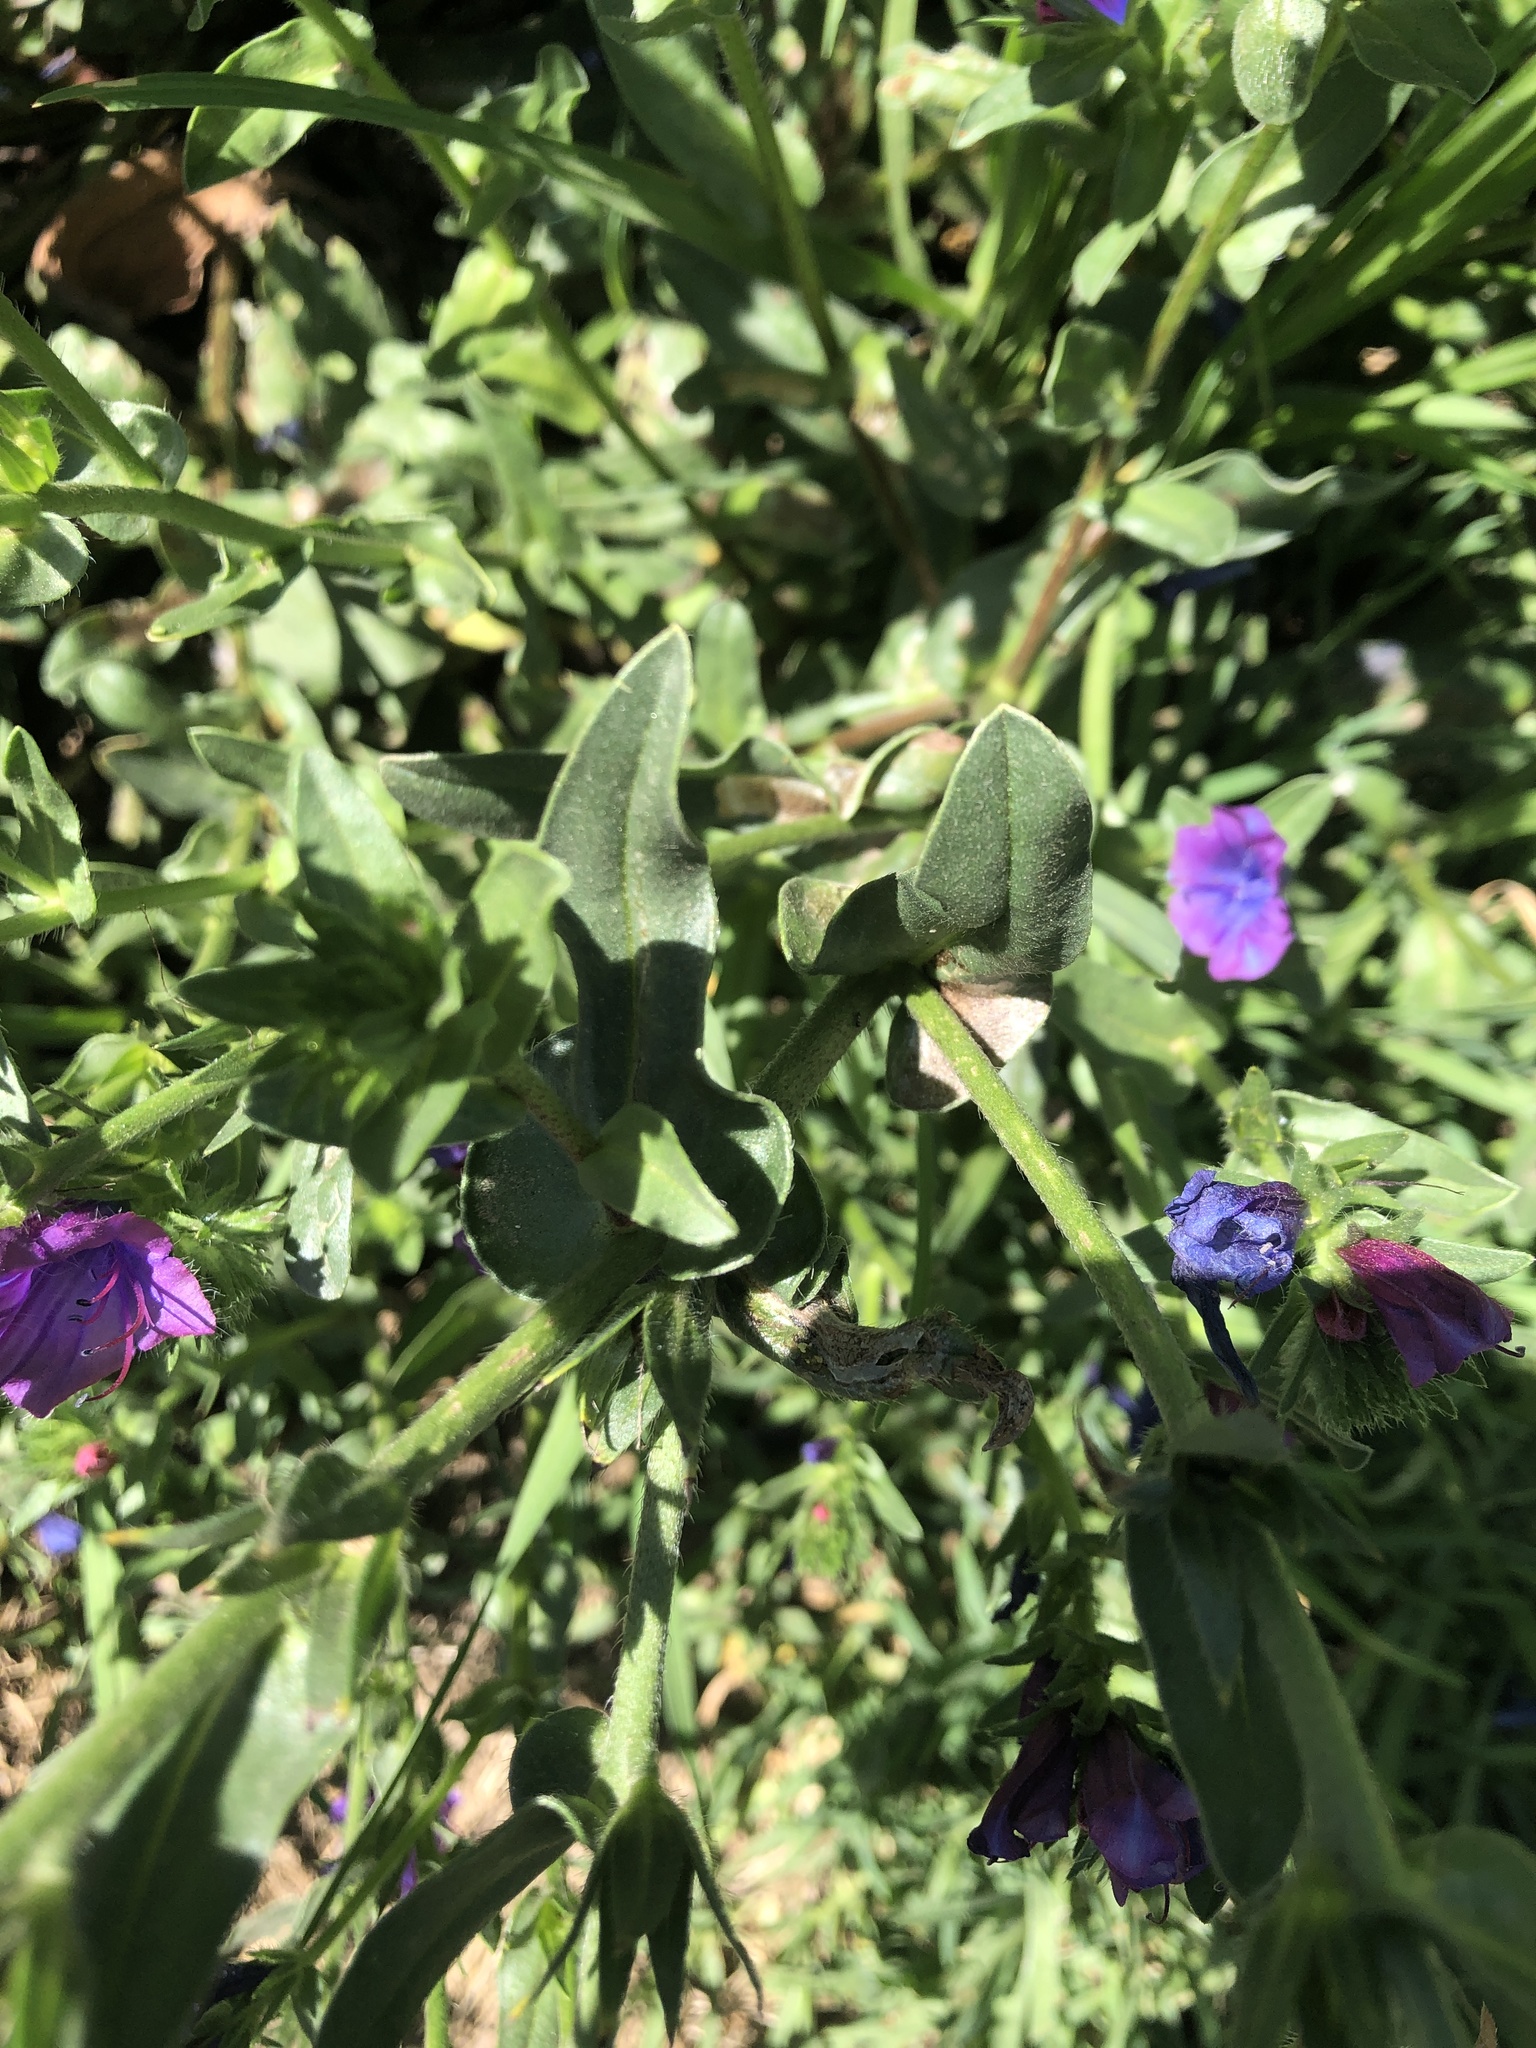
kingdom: Plantae
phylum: Tracheophyta
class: Magnoliopsida
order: Boraginales
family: Boraginaceae
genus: Echium
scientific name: Echium plantagineum
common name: Purple viper's-bugloss
